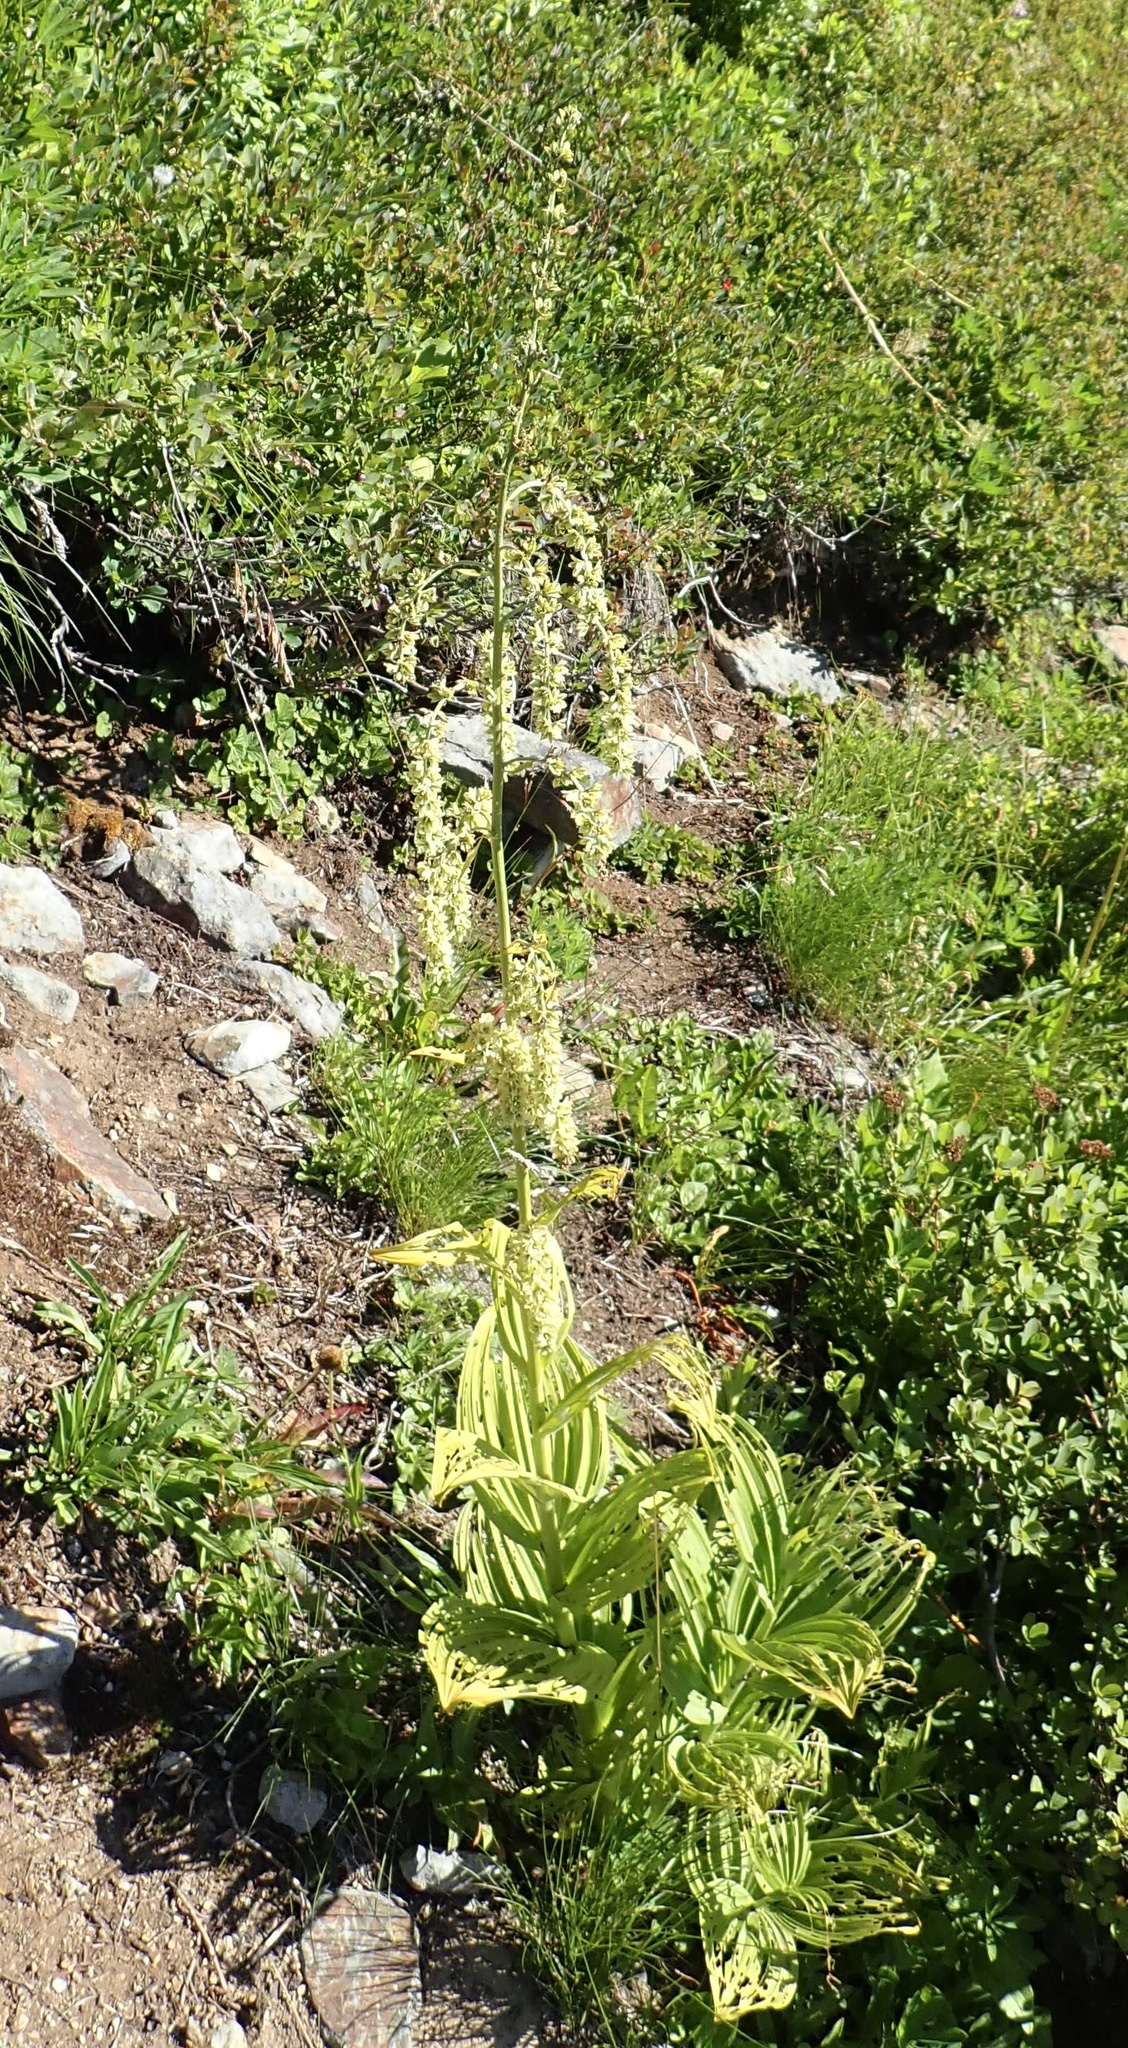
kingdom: Plantae
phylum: Tracheophyta
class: Liliopsida
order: Liliales
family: Melanthiaceae
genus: Veratrum
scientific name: Veratrum viride
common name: American false hellebore
